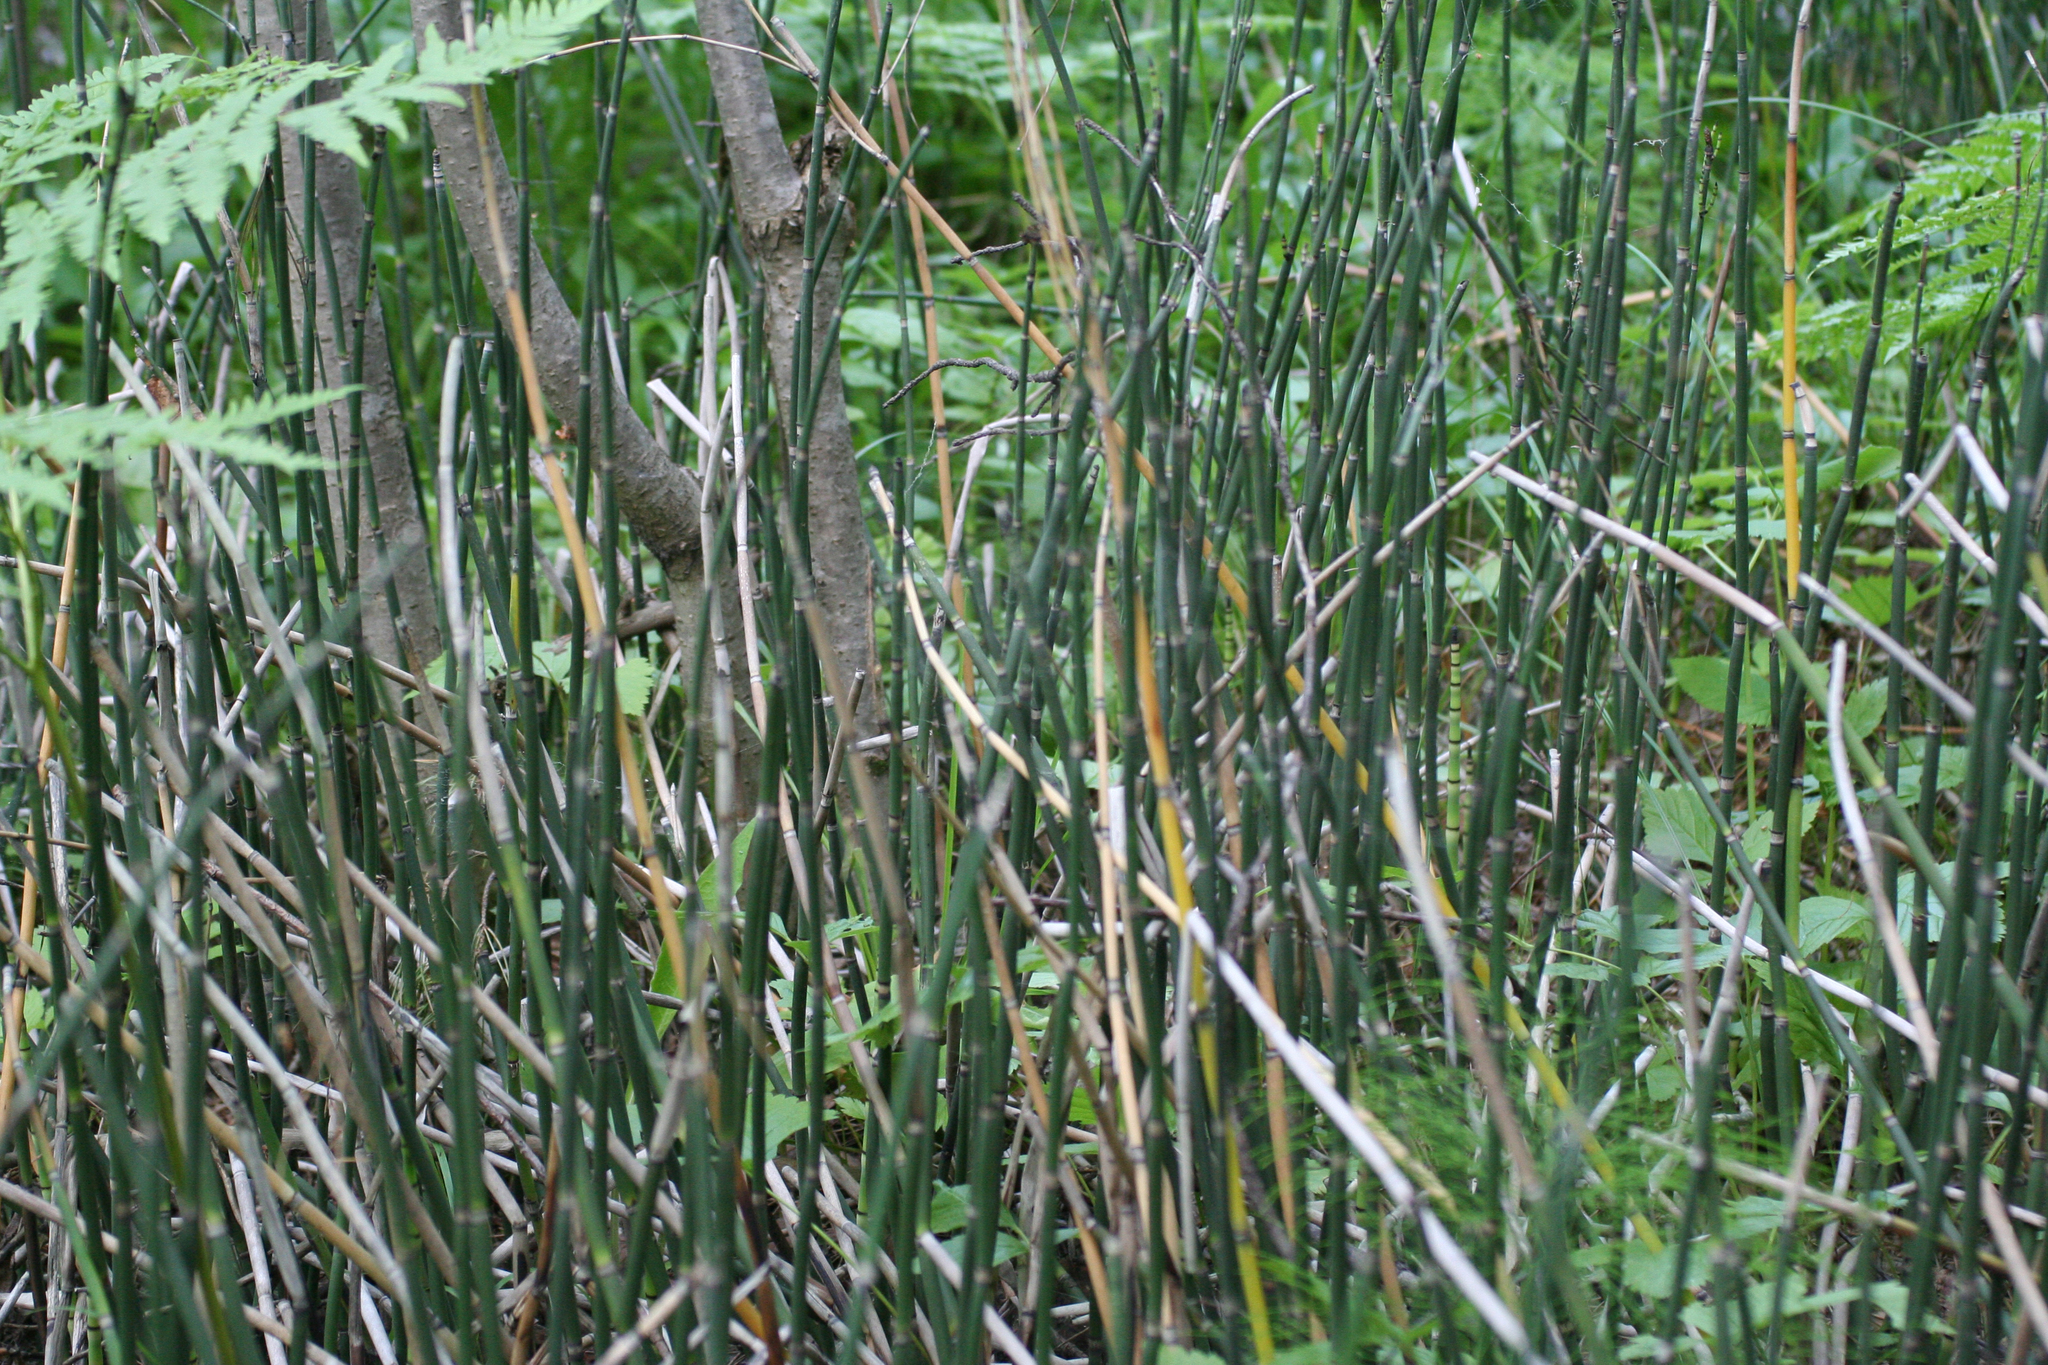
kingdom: Plantae
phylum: Tracheophyta
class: Polypodiopsida
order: Equisetales
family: Equisetaceae
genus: Equisetum
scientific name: Equisetum hyemale
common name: Rough horsetail
